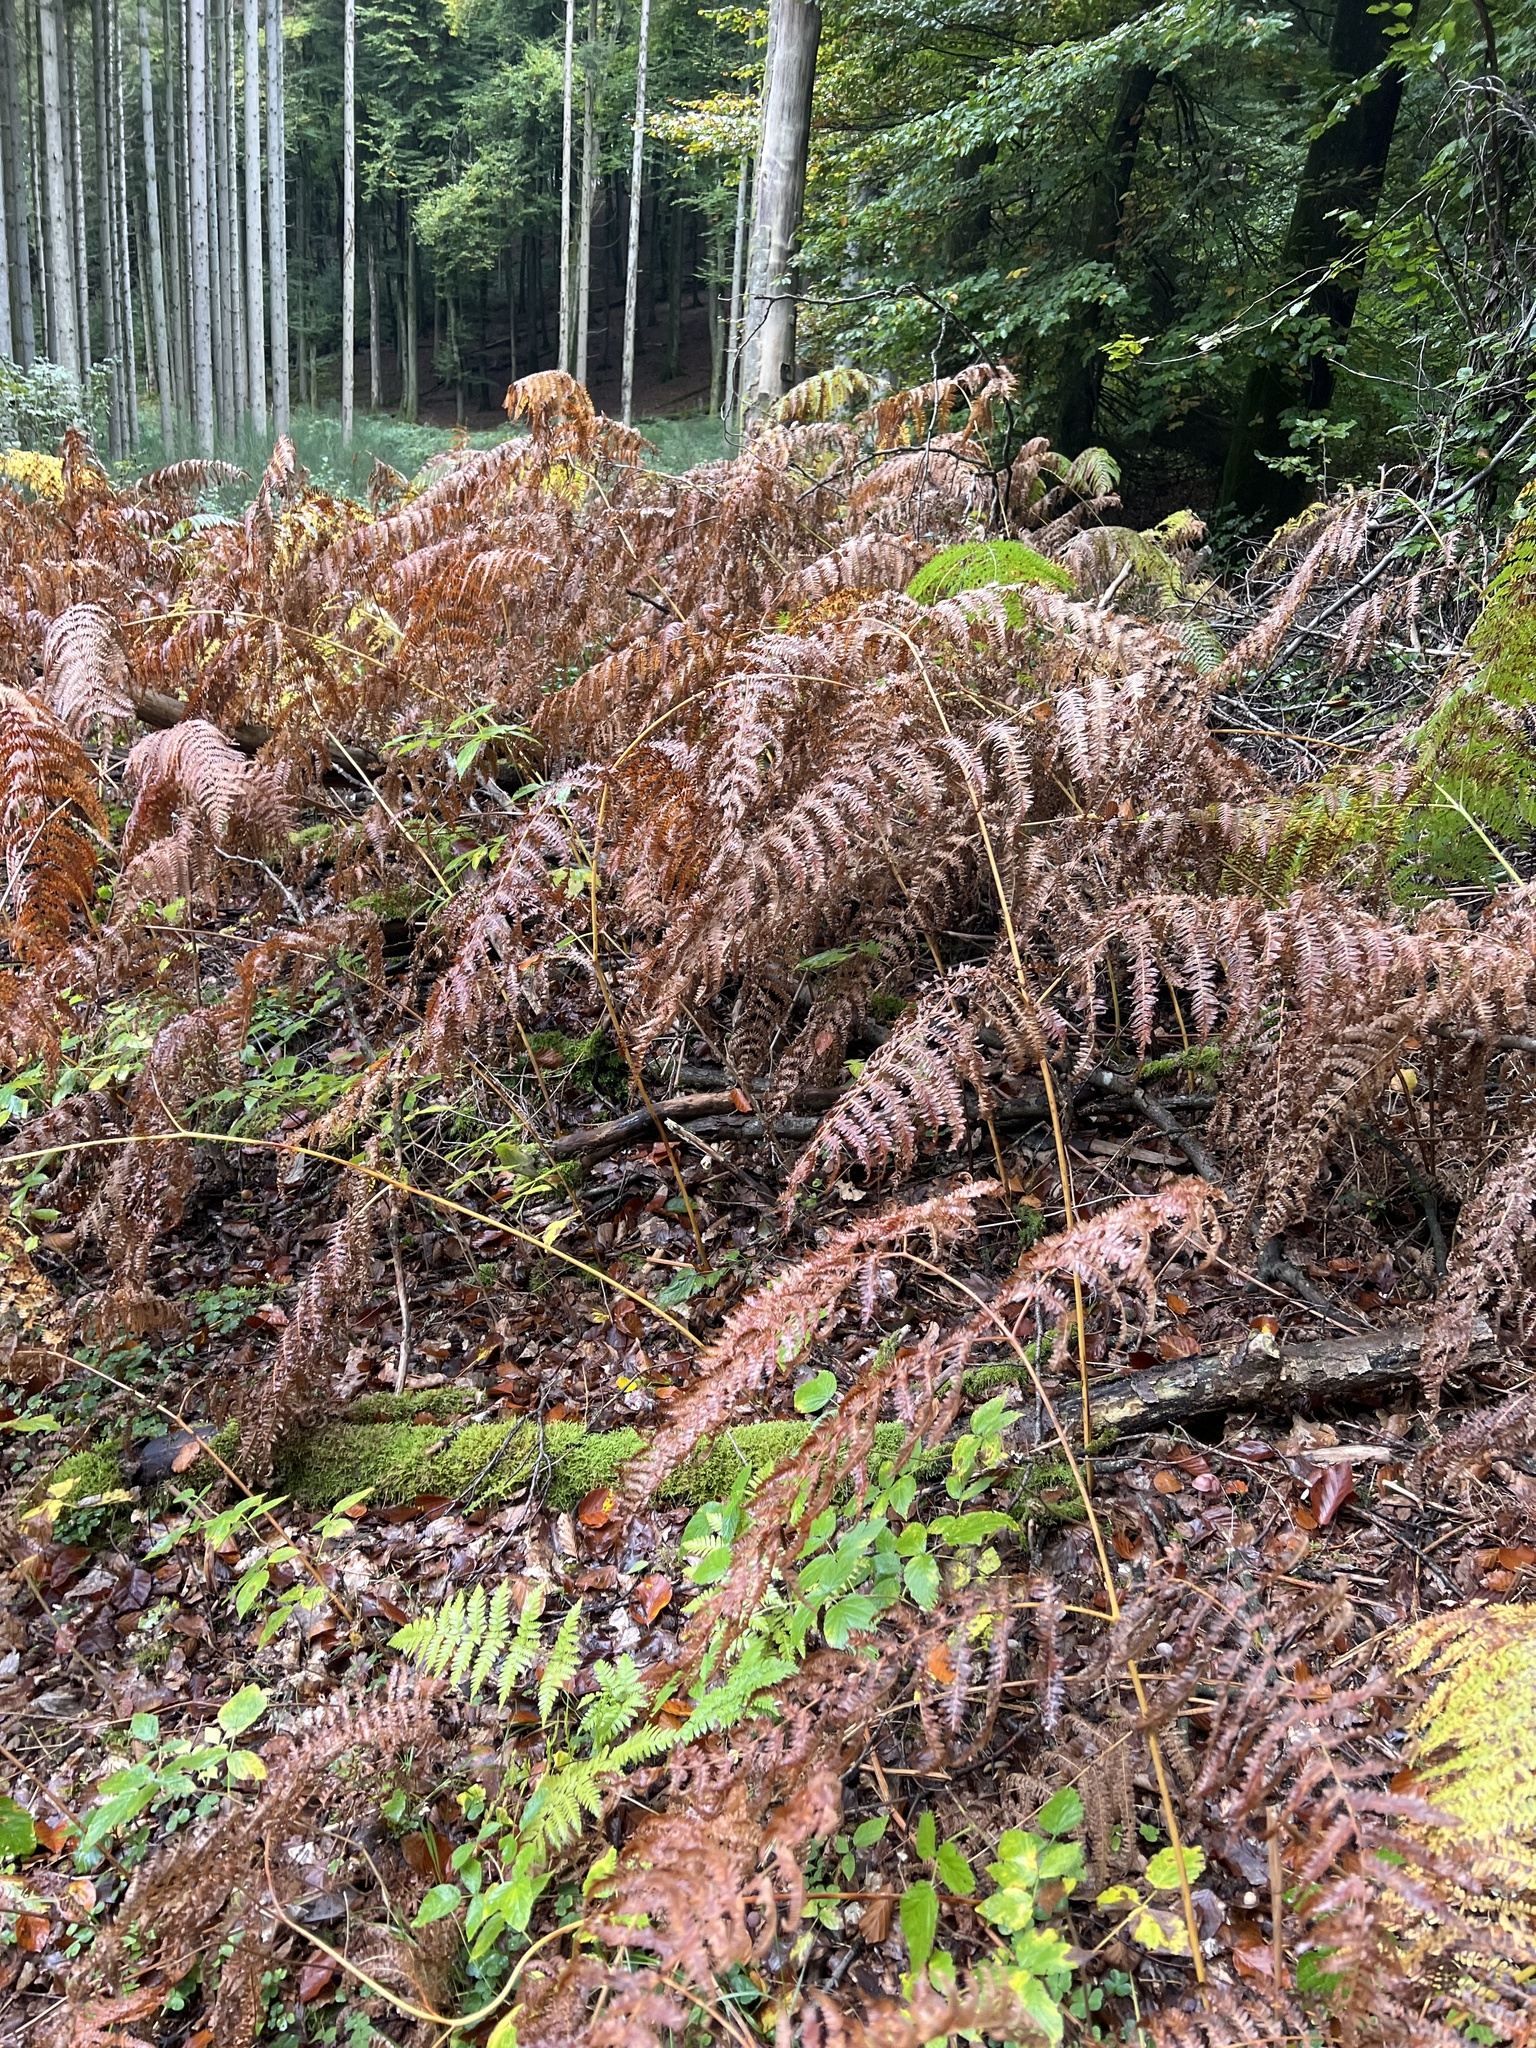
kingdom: Plantae
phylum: Tracheophyta
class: Polypodiopsida
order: Polypodiales
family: Dennstaedtiaceae
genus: Pteridium
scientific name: Pteridium aquilinum
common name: Bracken
